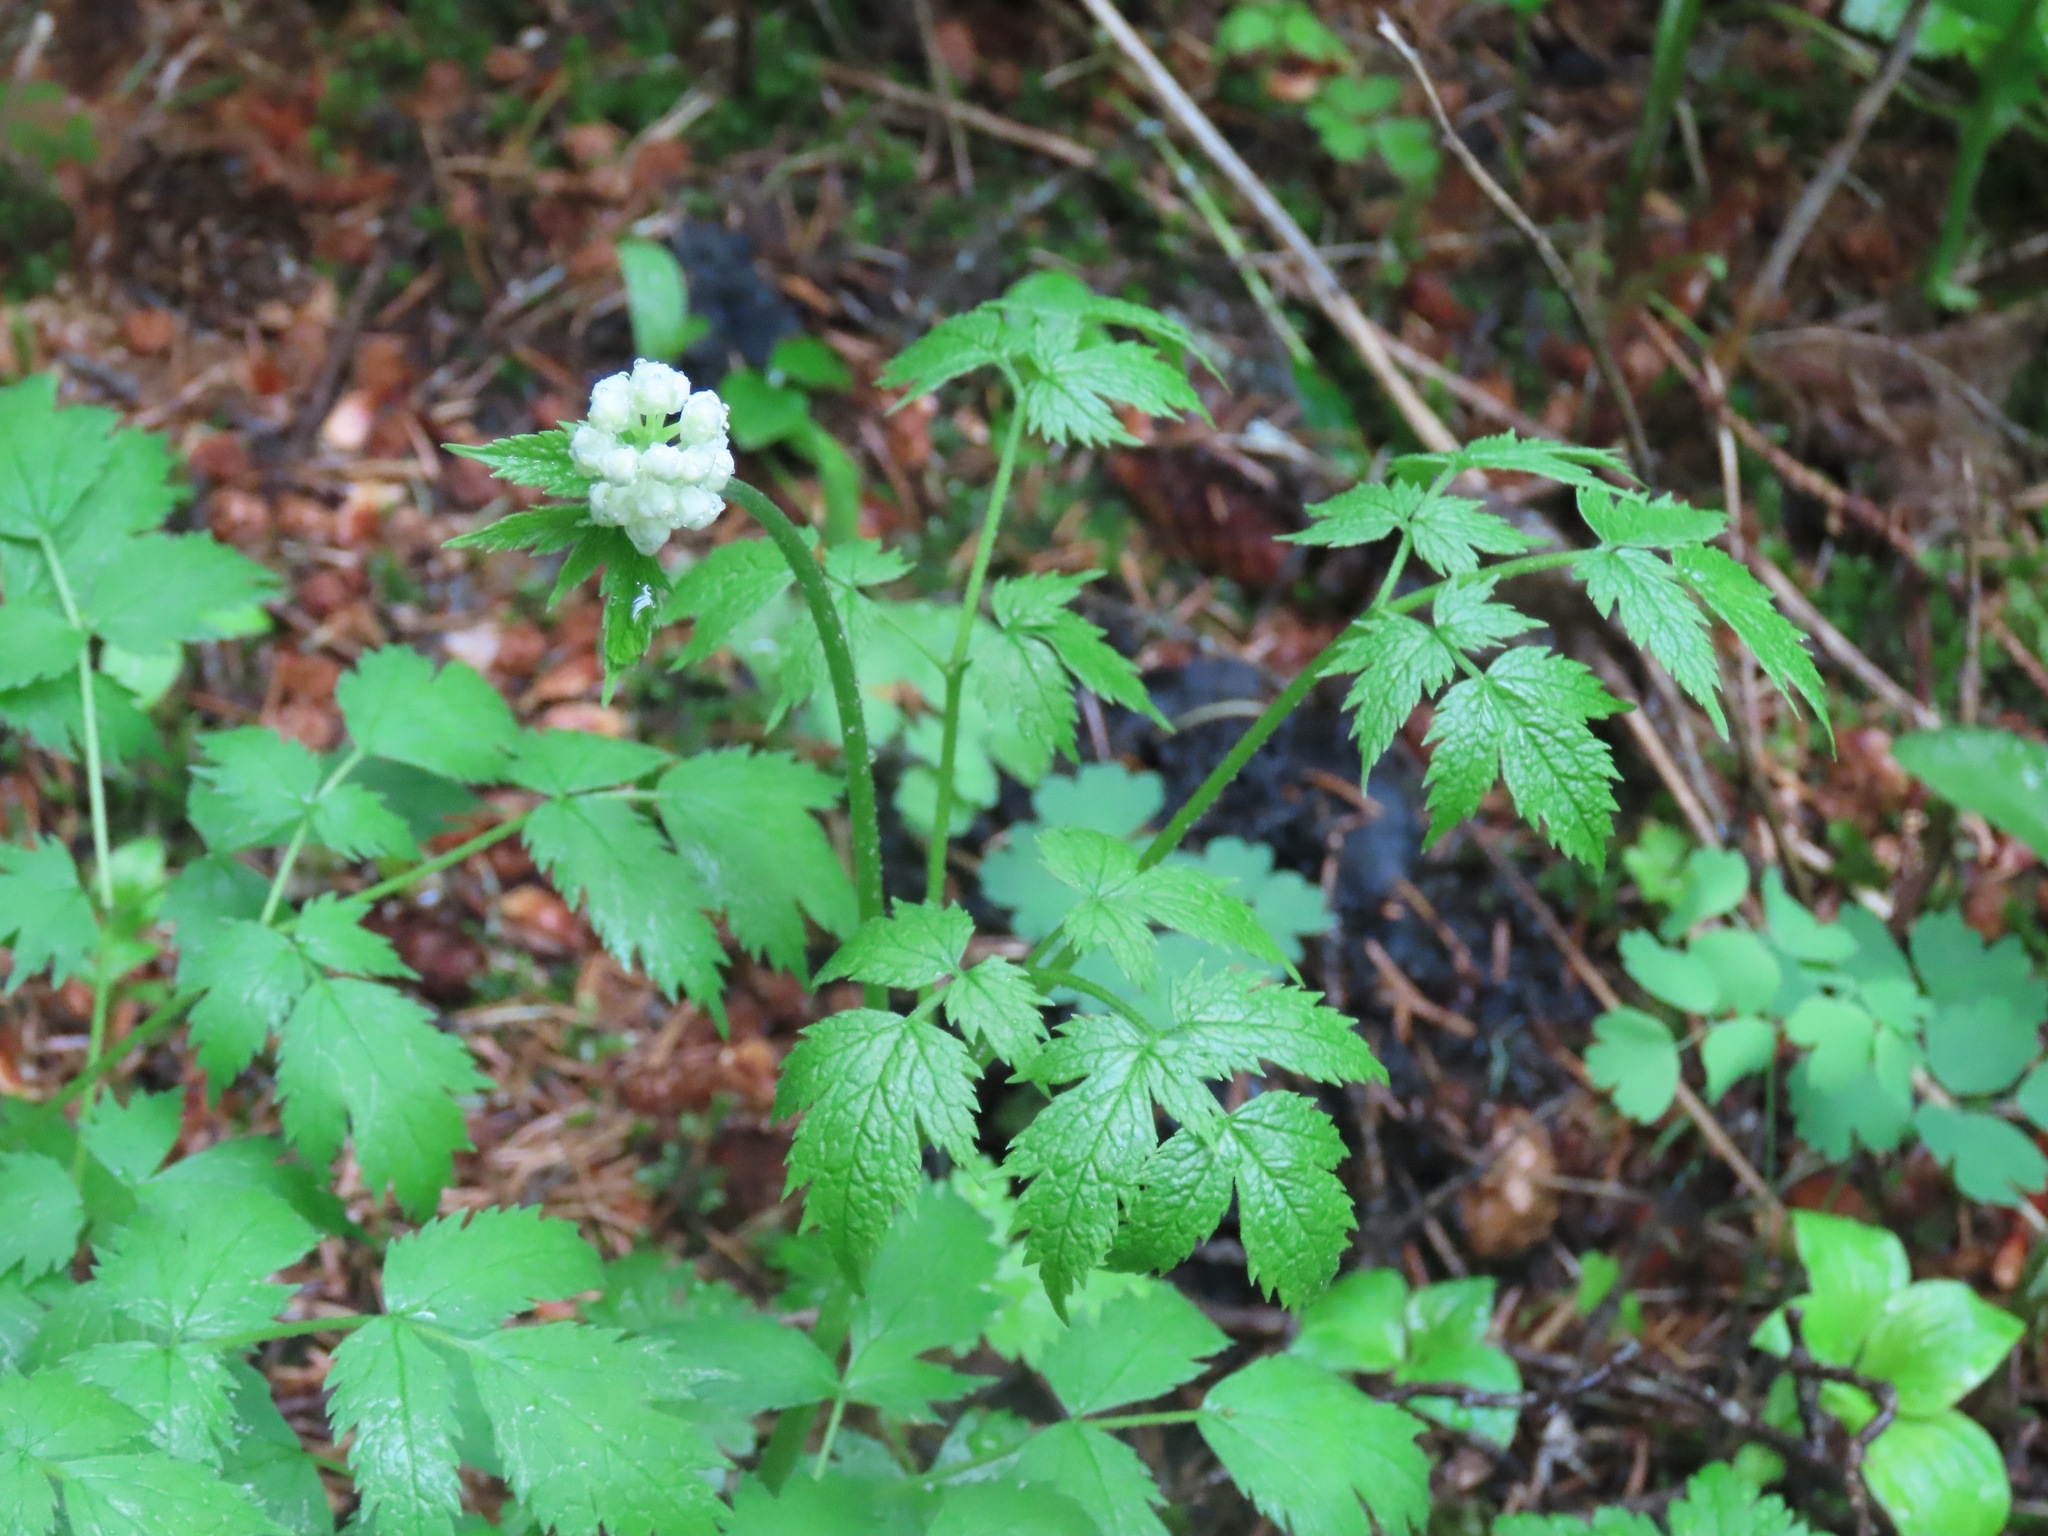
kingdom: Plantae
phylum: Tracheophyta
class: Magnoliopsida
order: Ranunculales
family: Ranunculaceae
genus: Actaea
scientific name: Actaea rubra
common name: Red baneberry
